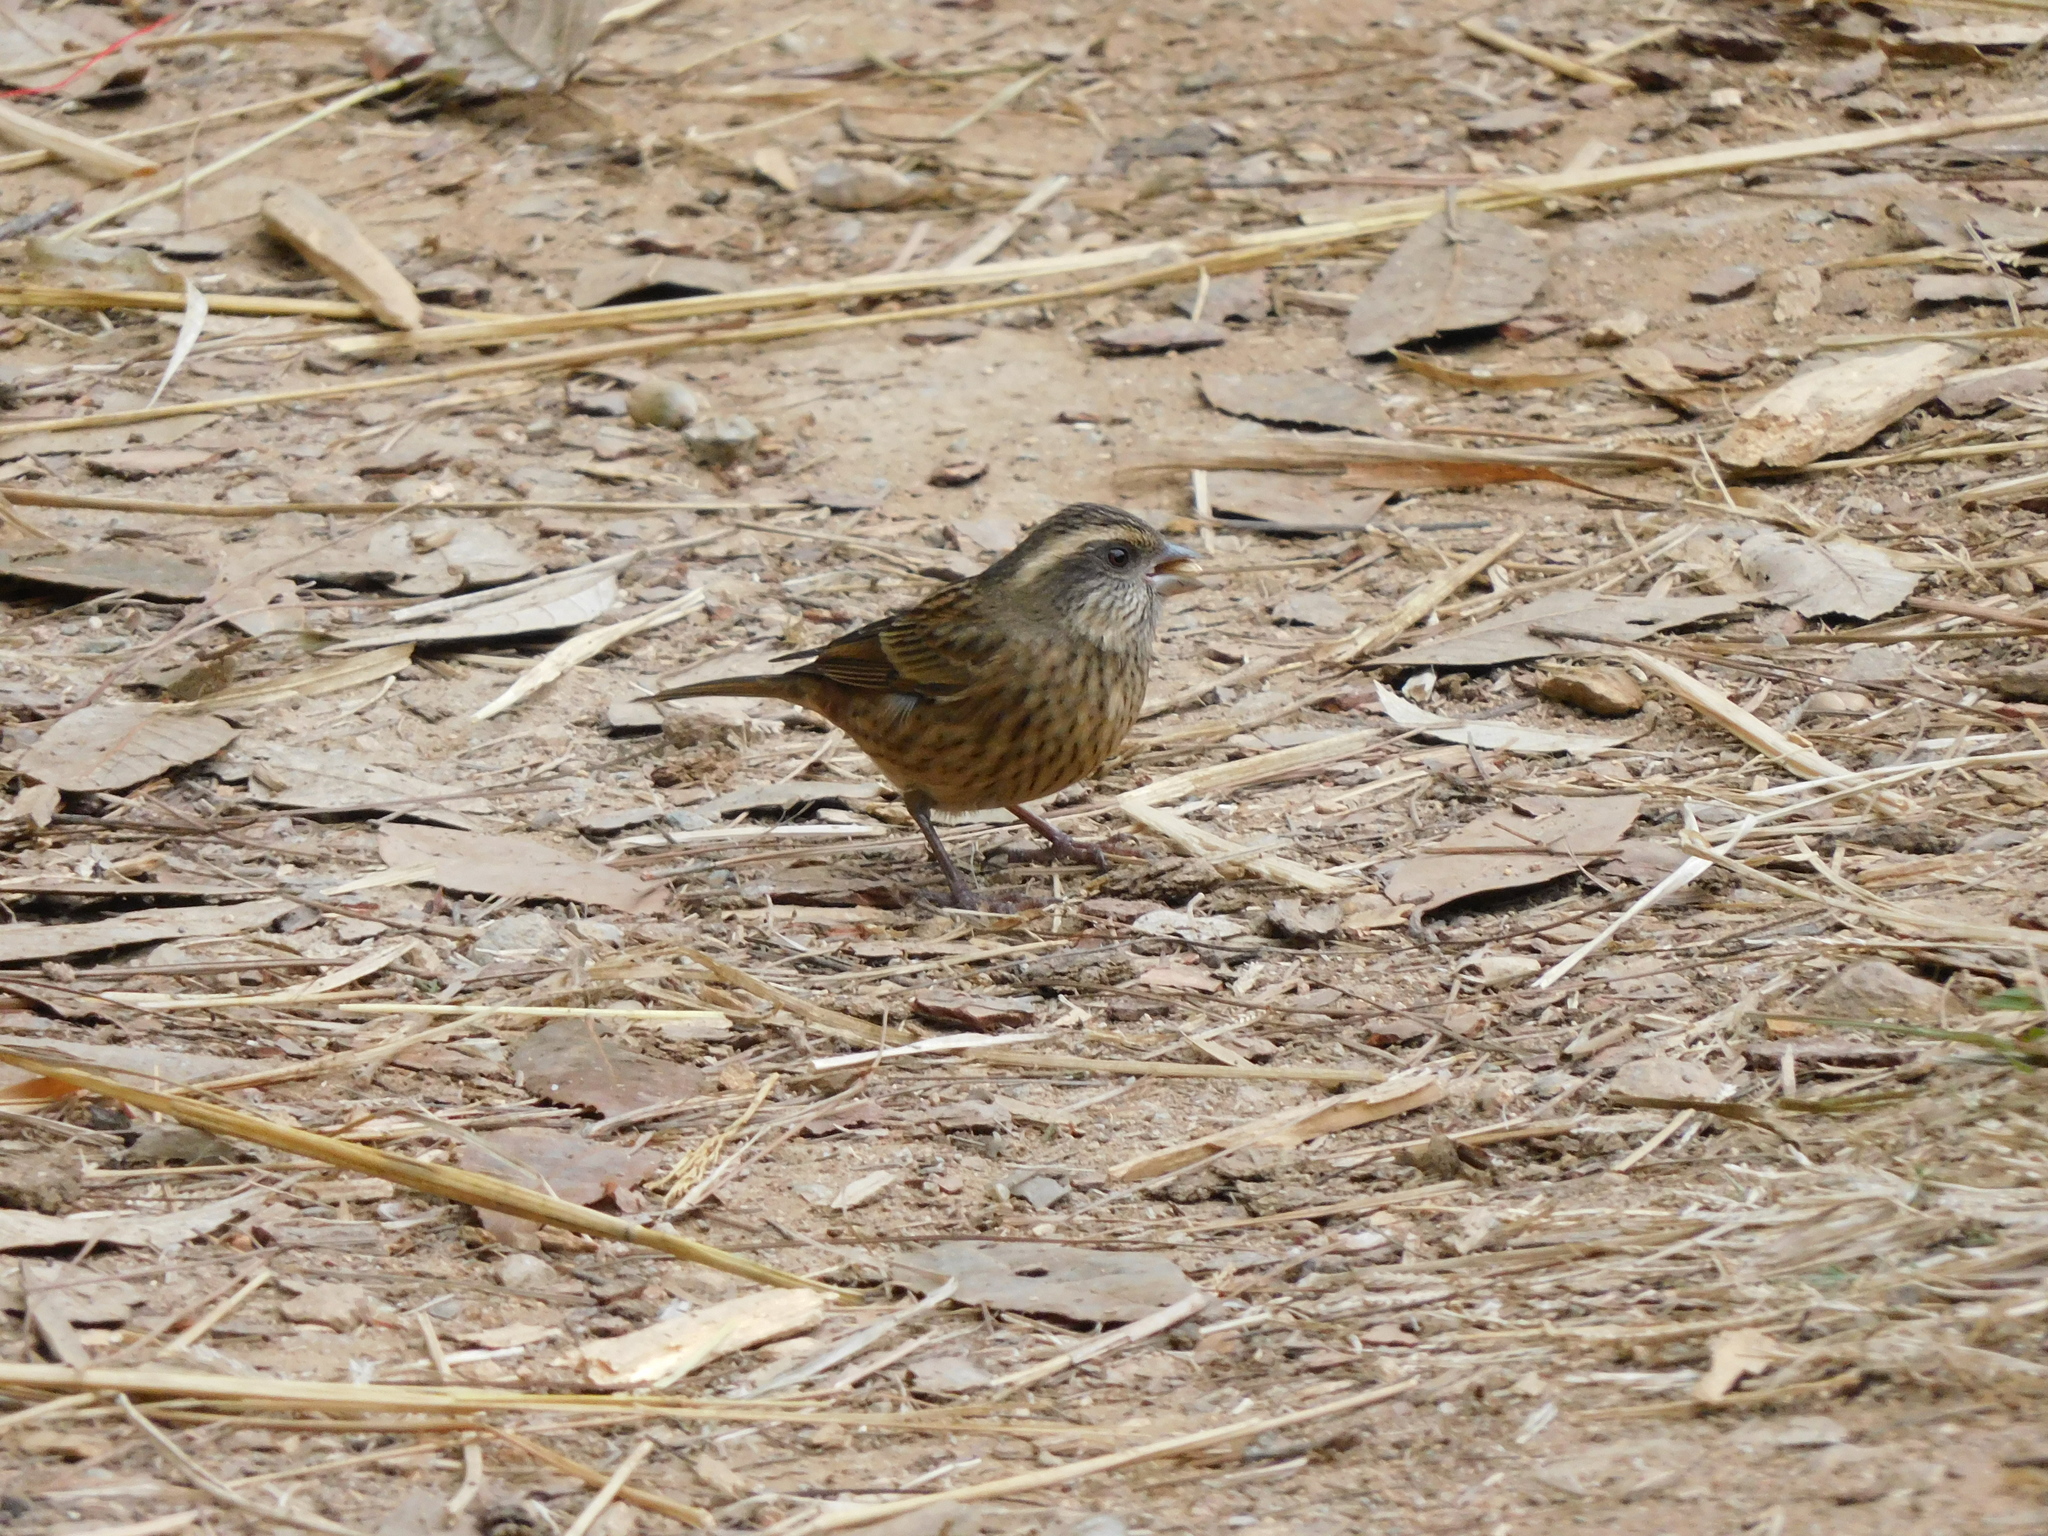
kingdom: Animalia
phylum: Chordata
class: Aves
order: Passeriformes
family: Fringillidae
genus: Carpodacus
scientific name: Carpodacus rodochroa
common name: Pink-browed rosefinch
